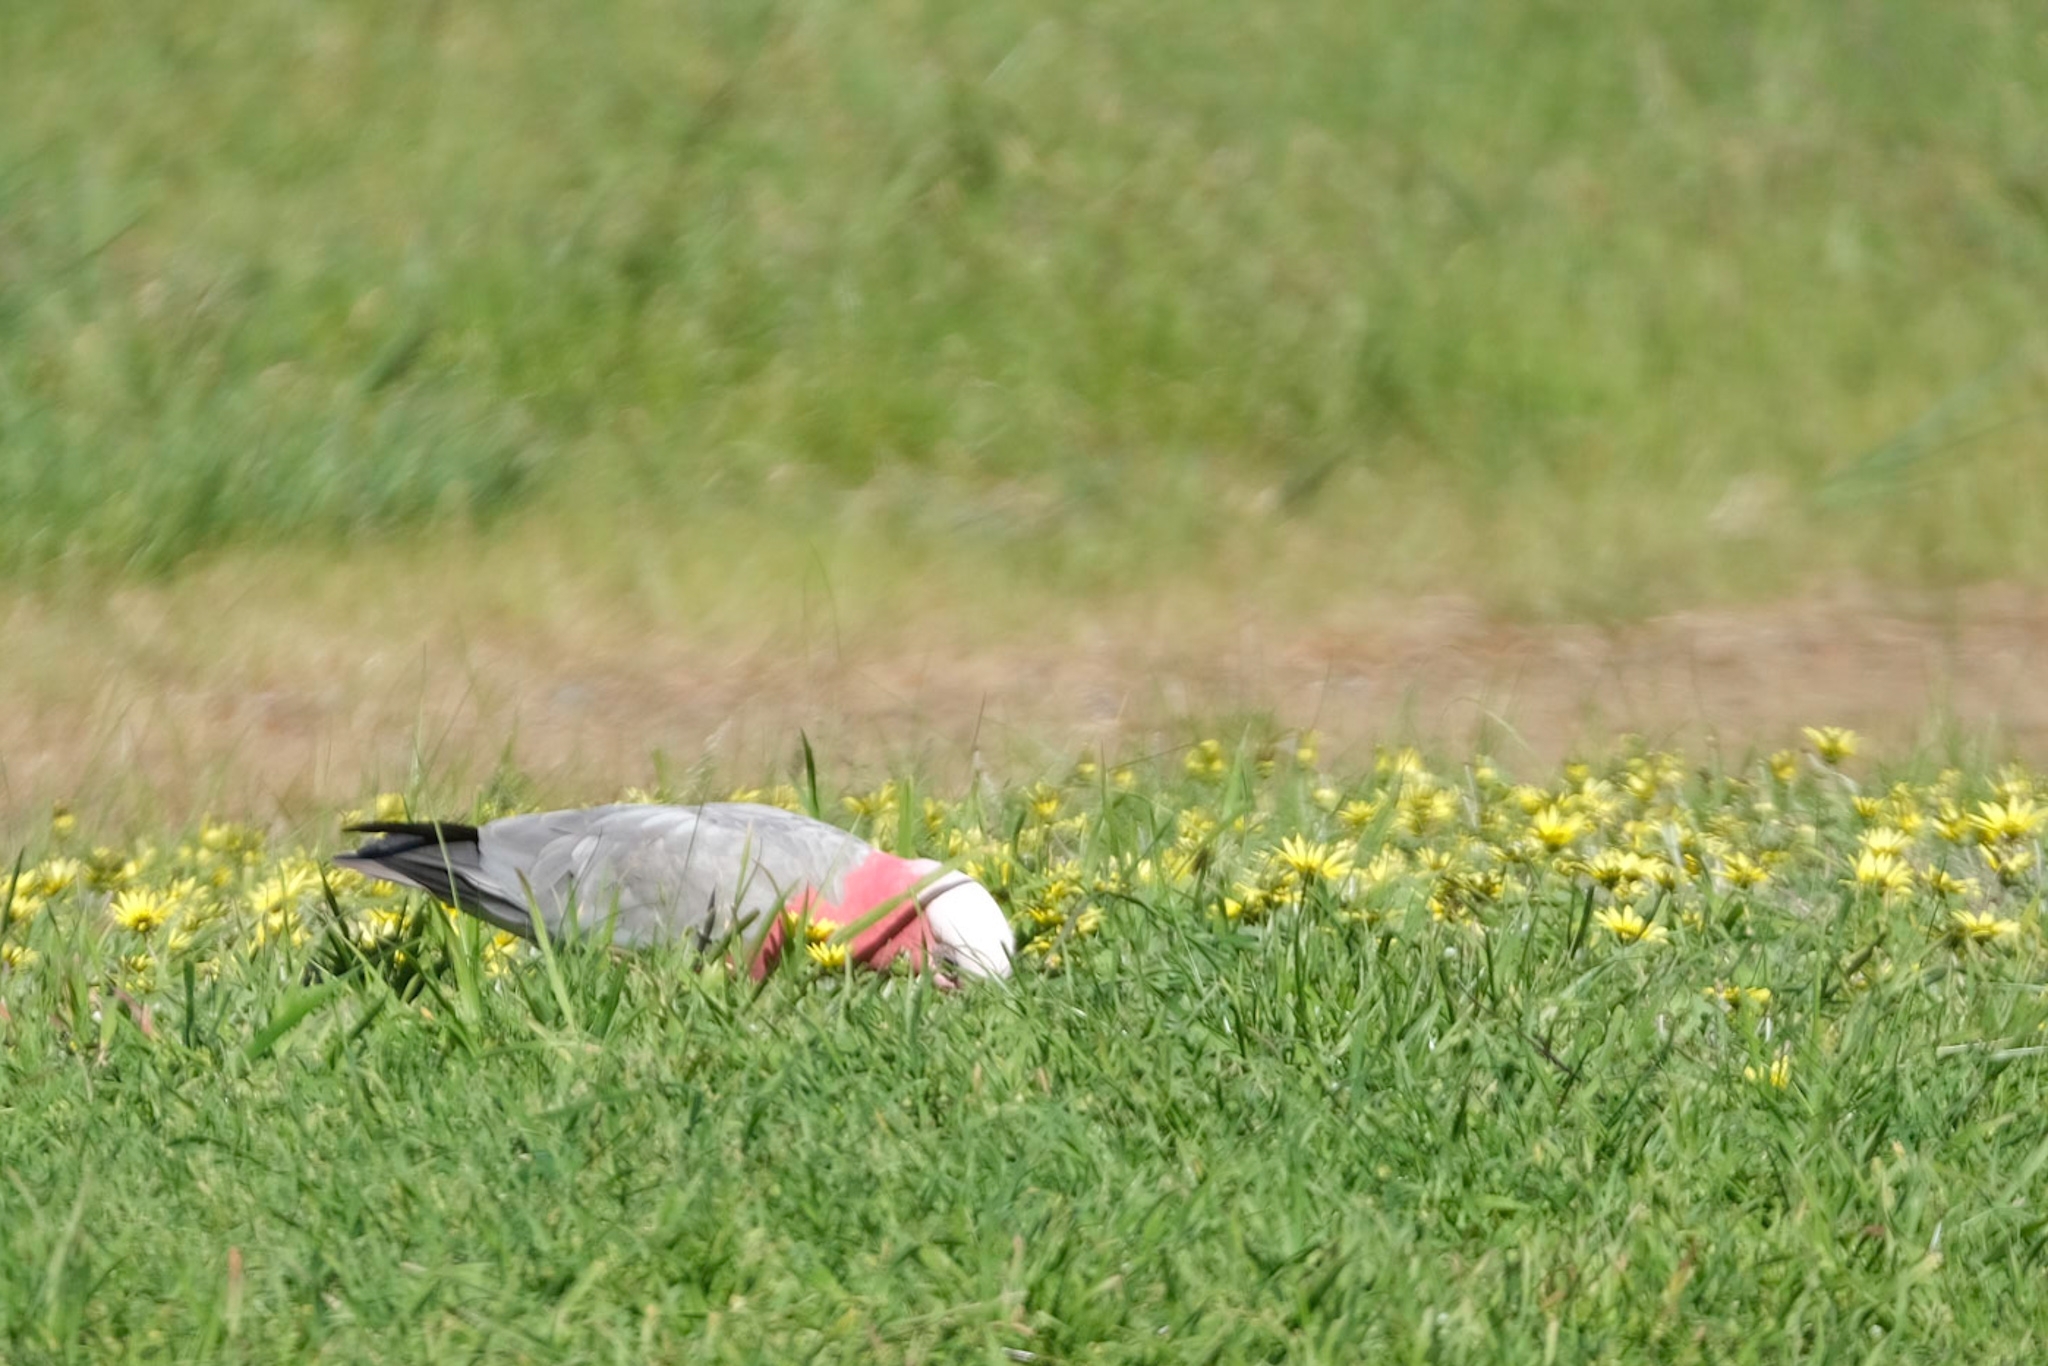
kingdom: Animalia
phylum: Chordata
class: Aves
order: Psittaciformes
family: Psittacidae
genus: Eolophus
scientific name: Eolophus roseicapilla
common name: Galah
